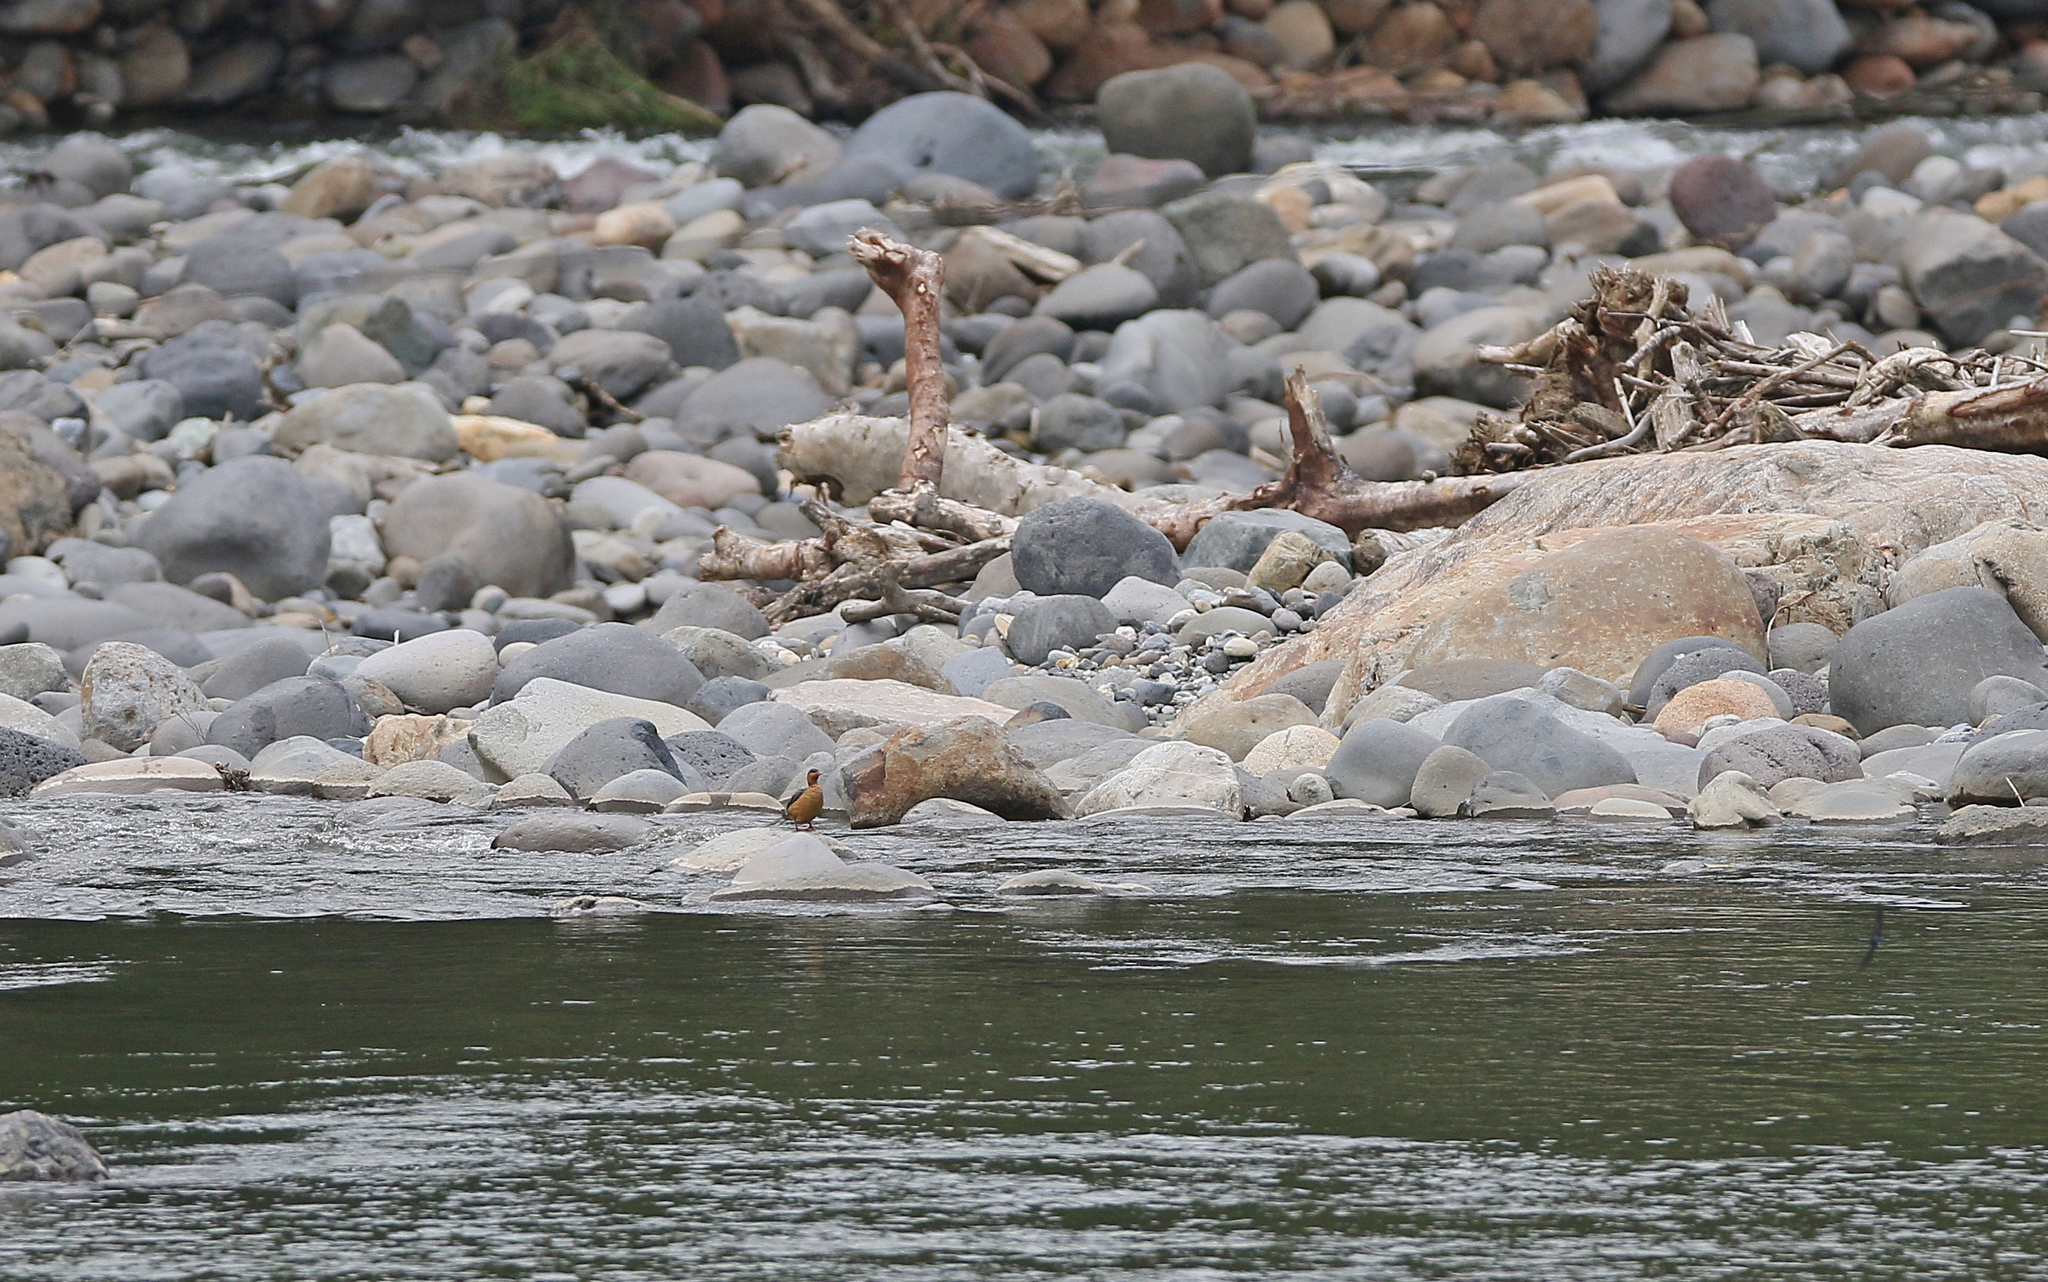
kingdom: Animalia
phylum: Chordata
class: Aves
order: Anseriformes
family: Anatidae
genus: Merganetta
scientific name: Merganetta armata
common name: Torrent duck
